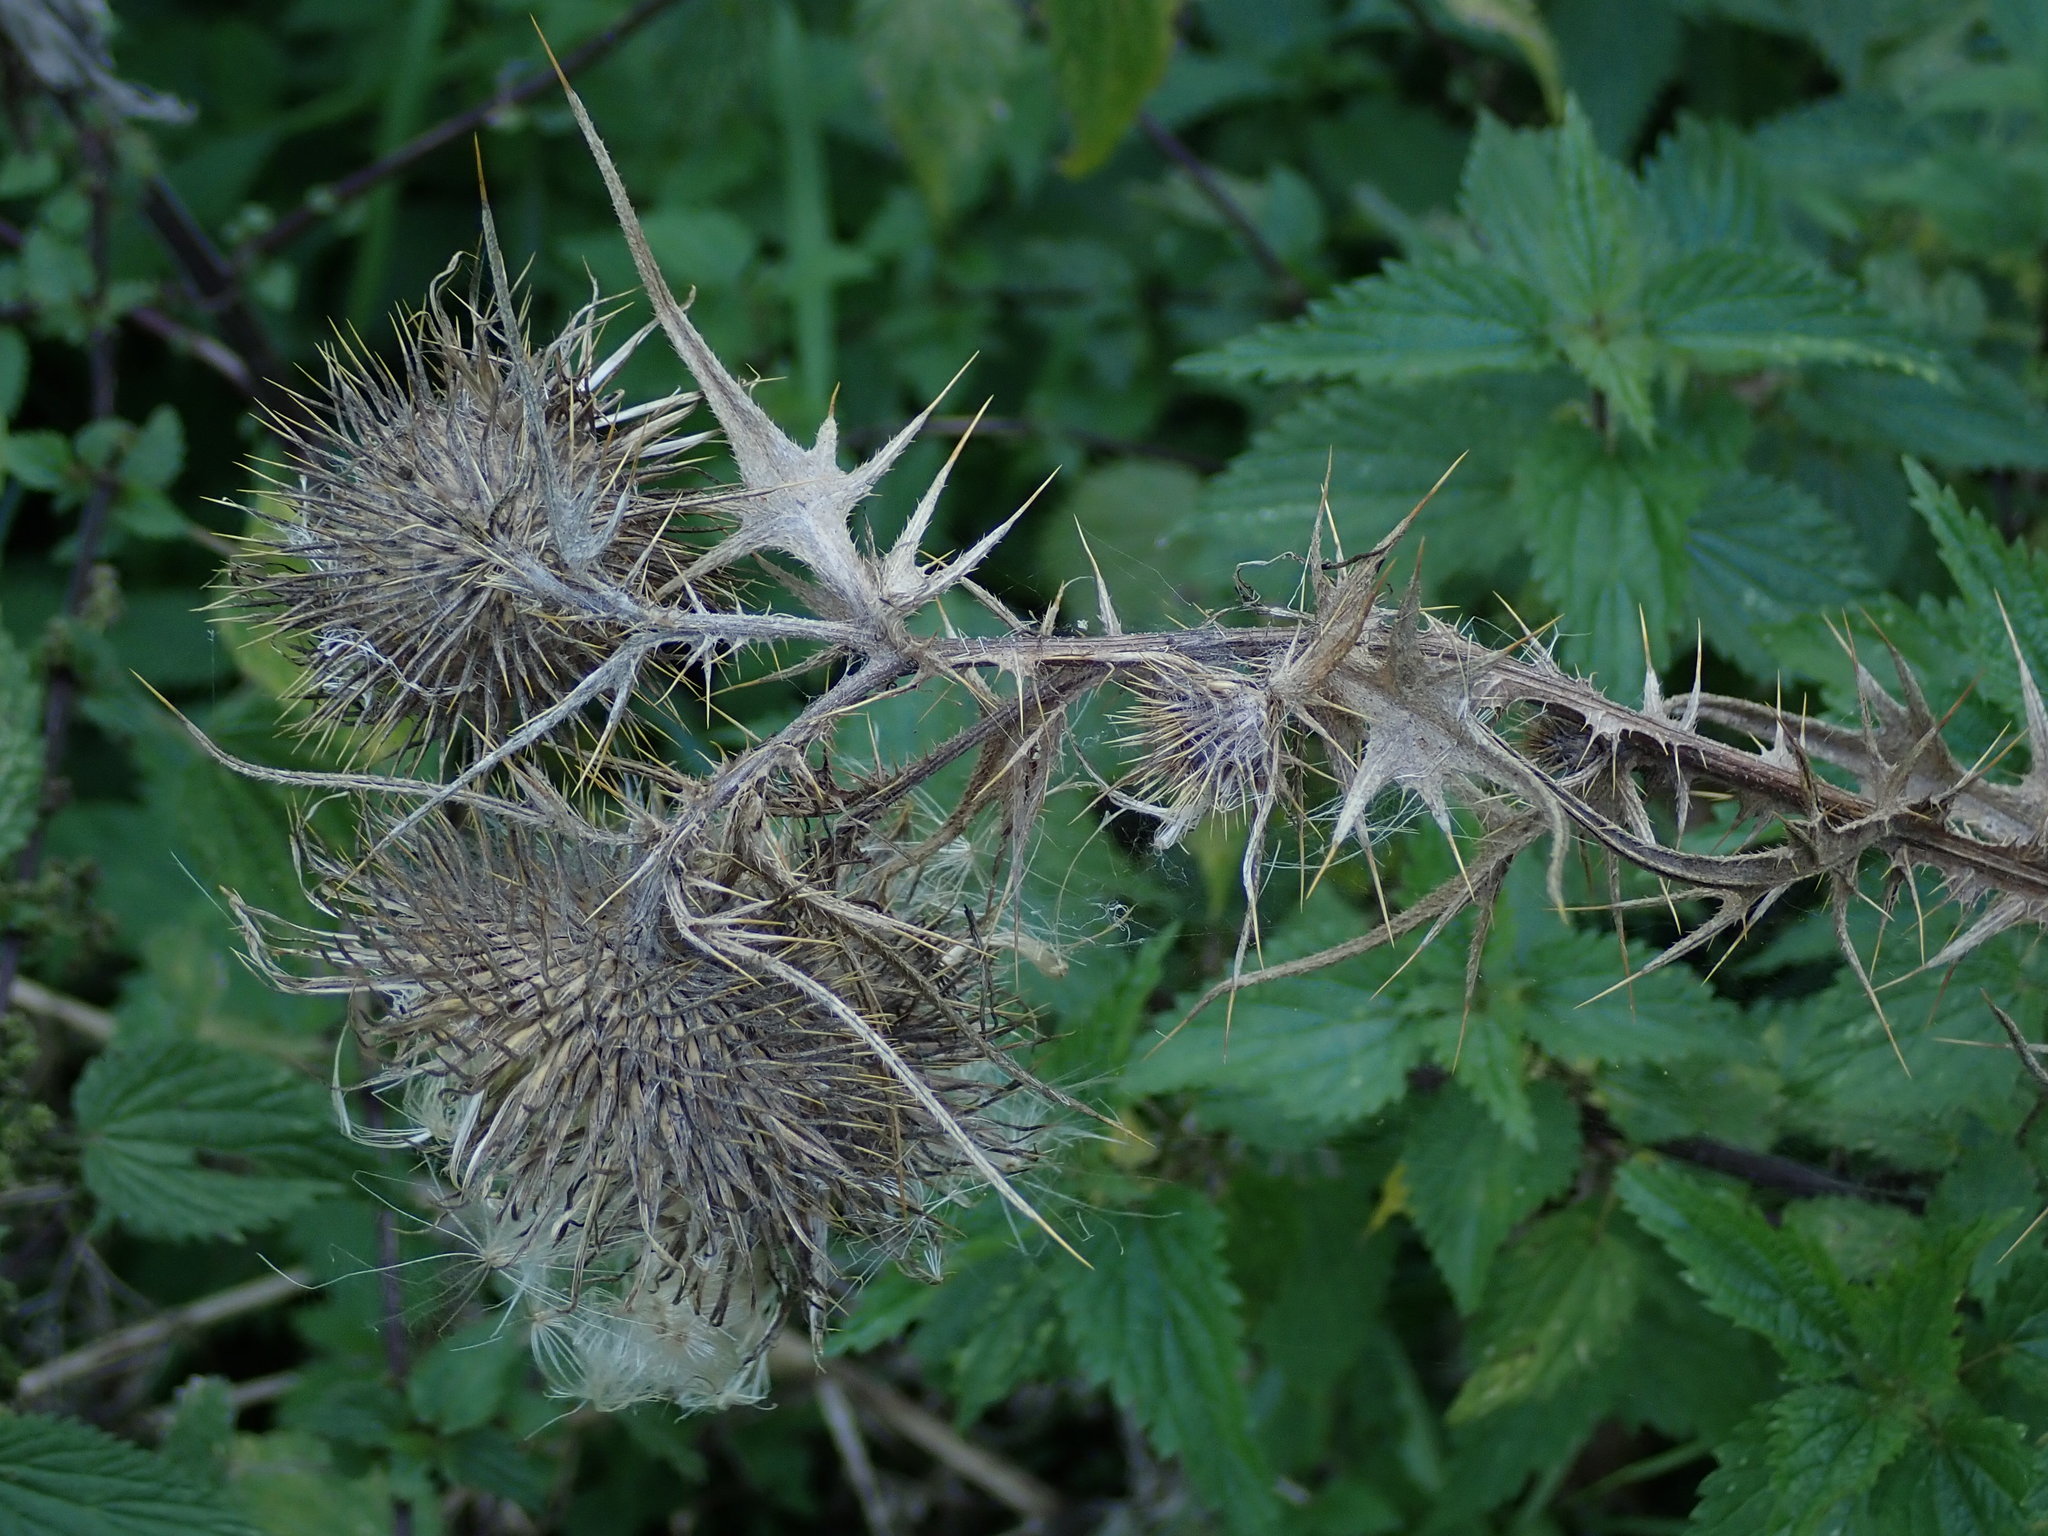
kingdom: Plantae
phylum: Tracheophyta
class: Magnoliopsida
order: Asterales
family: Asteraceae
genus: Carduus
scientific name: Carduus crispus
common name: Welted thistle
